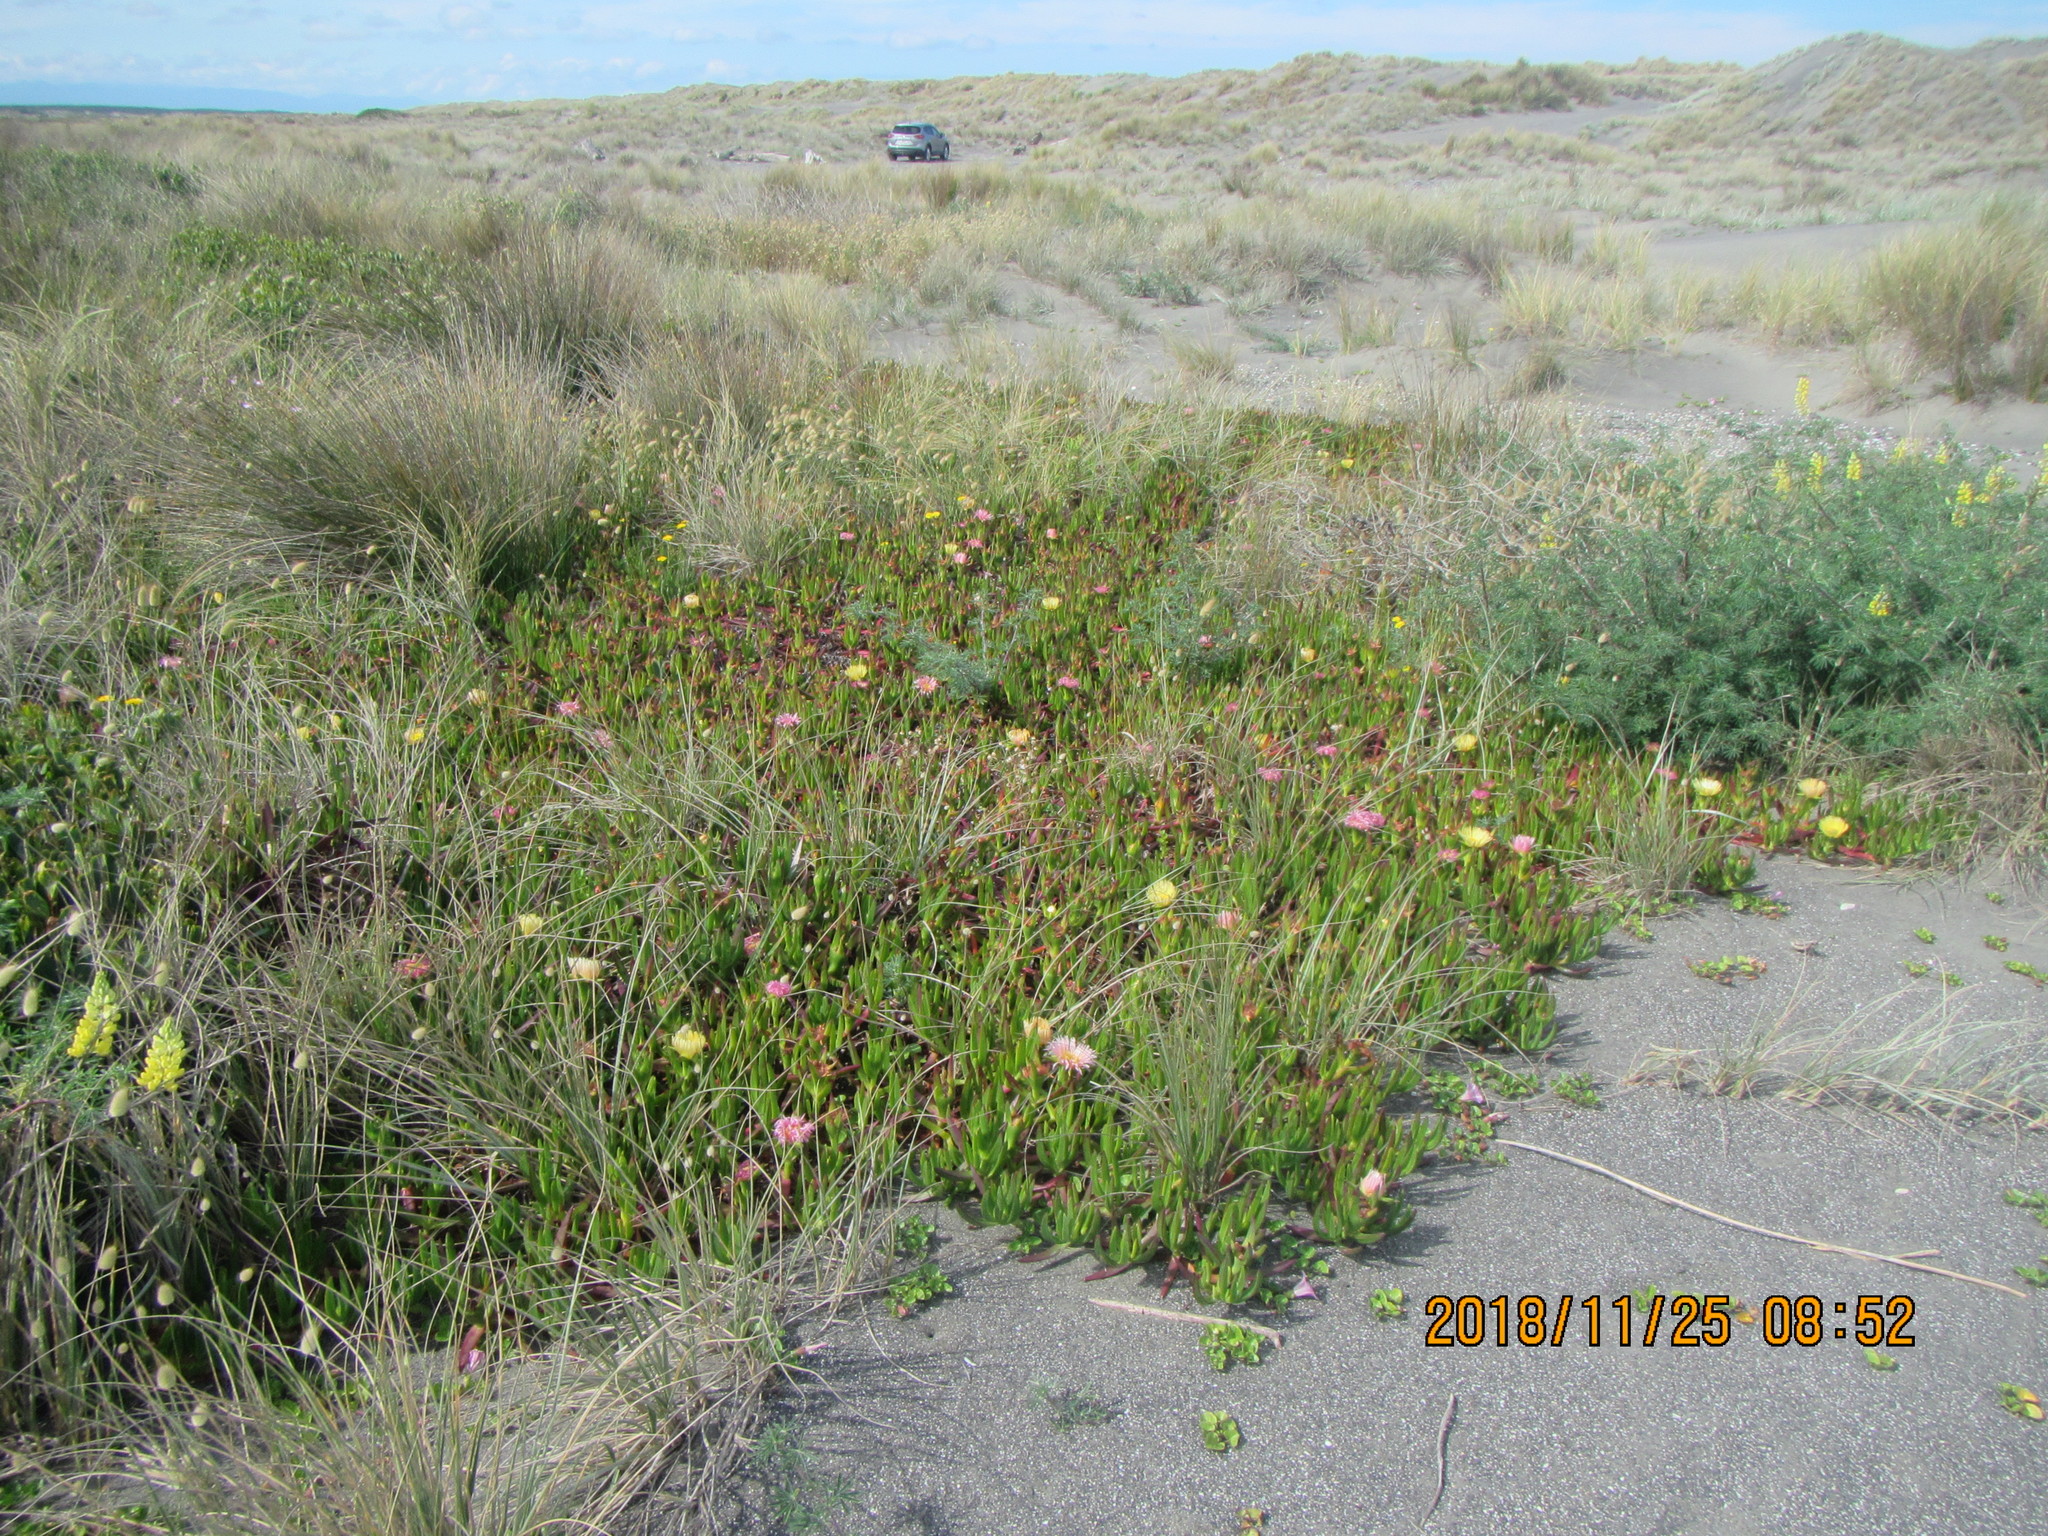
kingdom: Plantae
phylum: Tracheophyta
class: Magnoliopsida
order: Caryophyllales
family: Aizoaceae
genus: Carpobrotus
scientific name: Carpobrotus edulis
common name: Hottentot-fig
